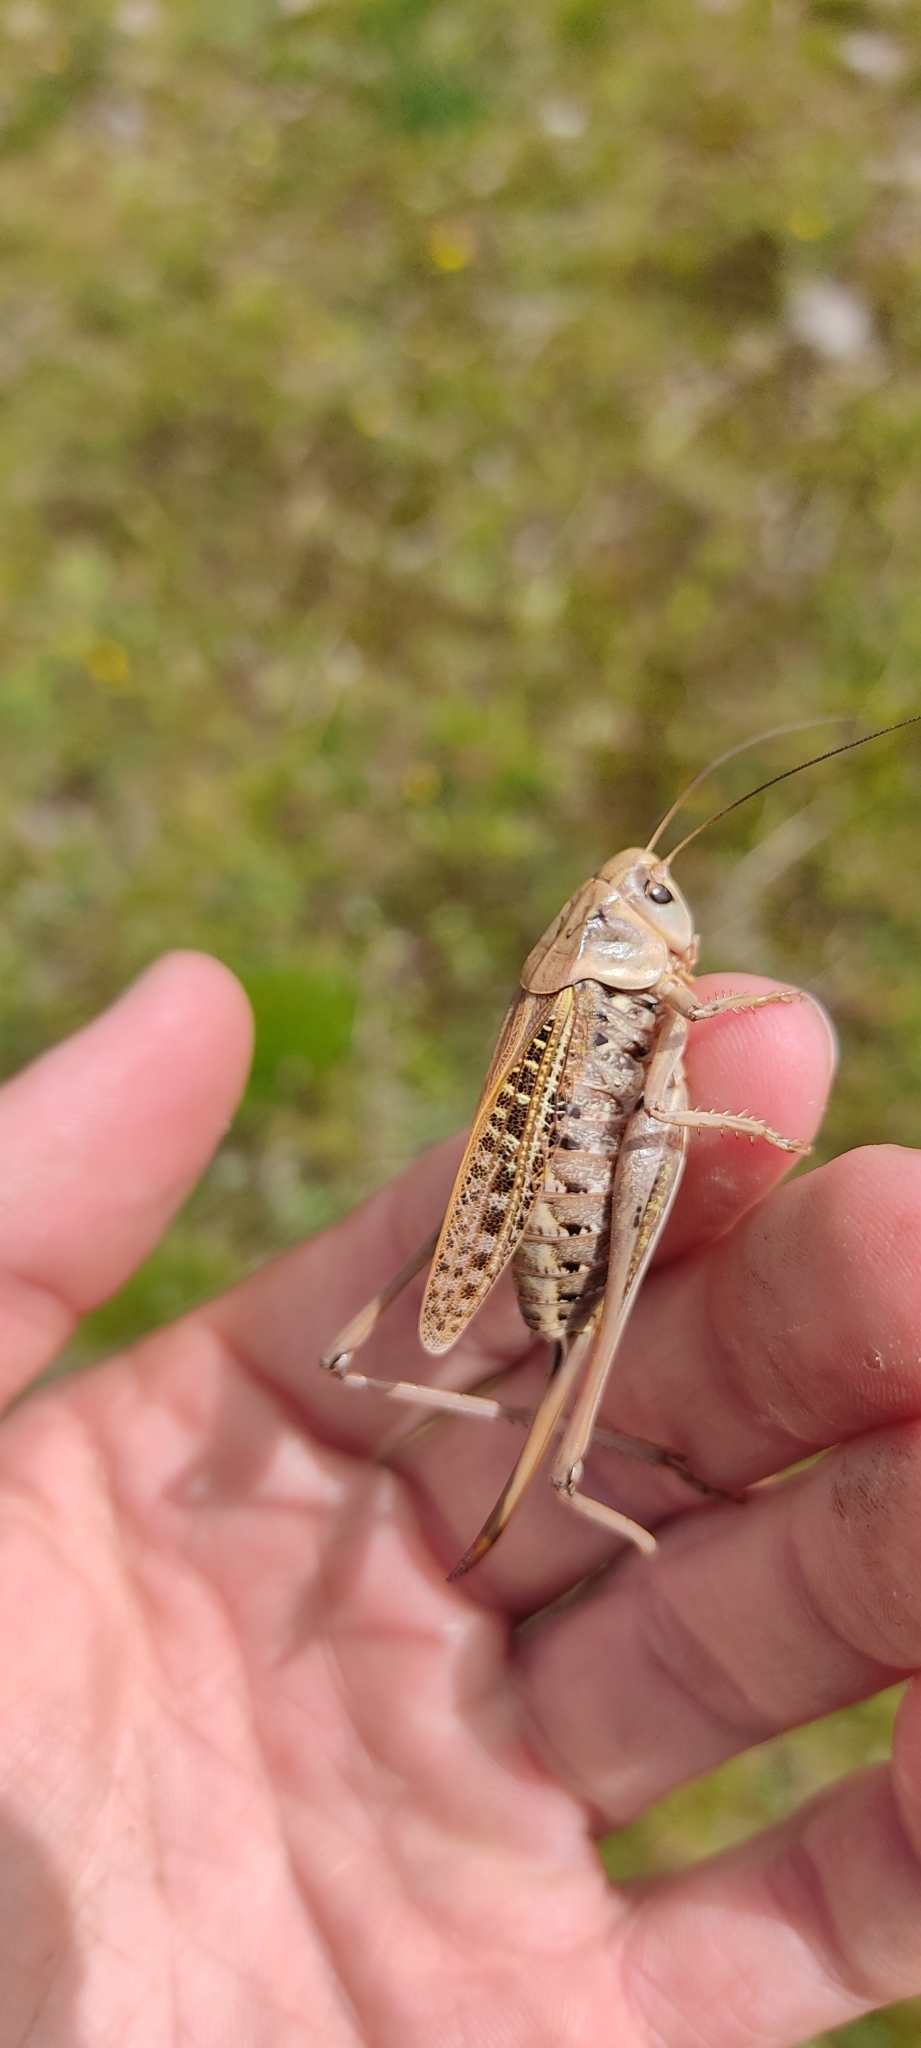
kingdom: Animalia
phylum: Arthropoda
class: Insecta
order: Orthoptera
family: Tettigoniidae
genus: Decticus
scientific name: Decticus verrucivorus
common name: Wart-biter
